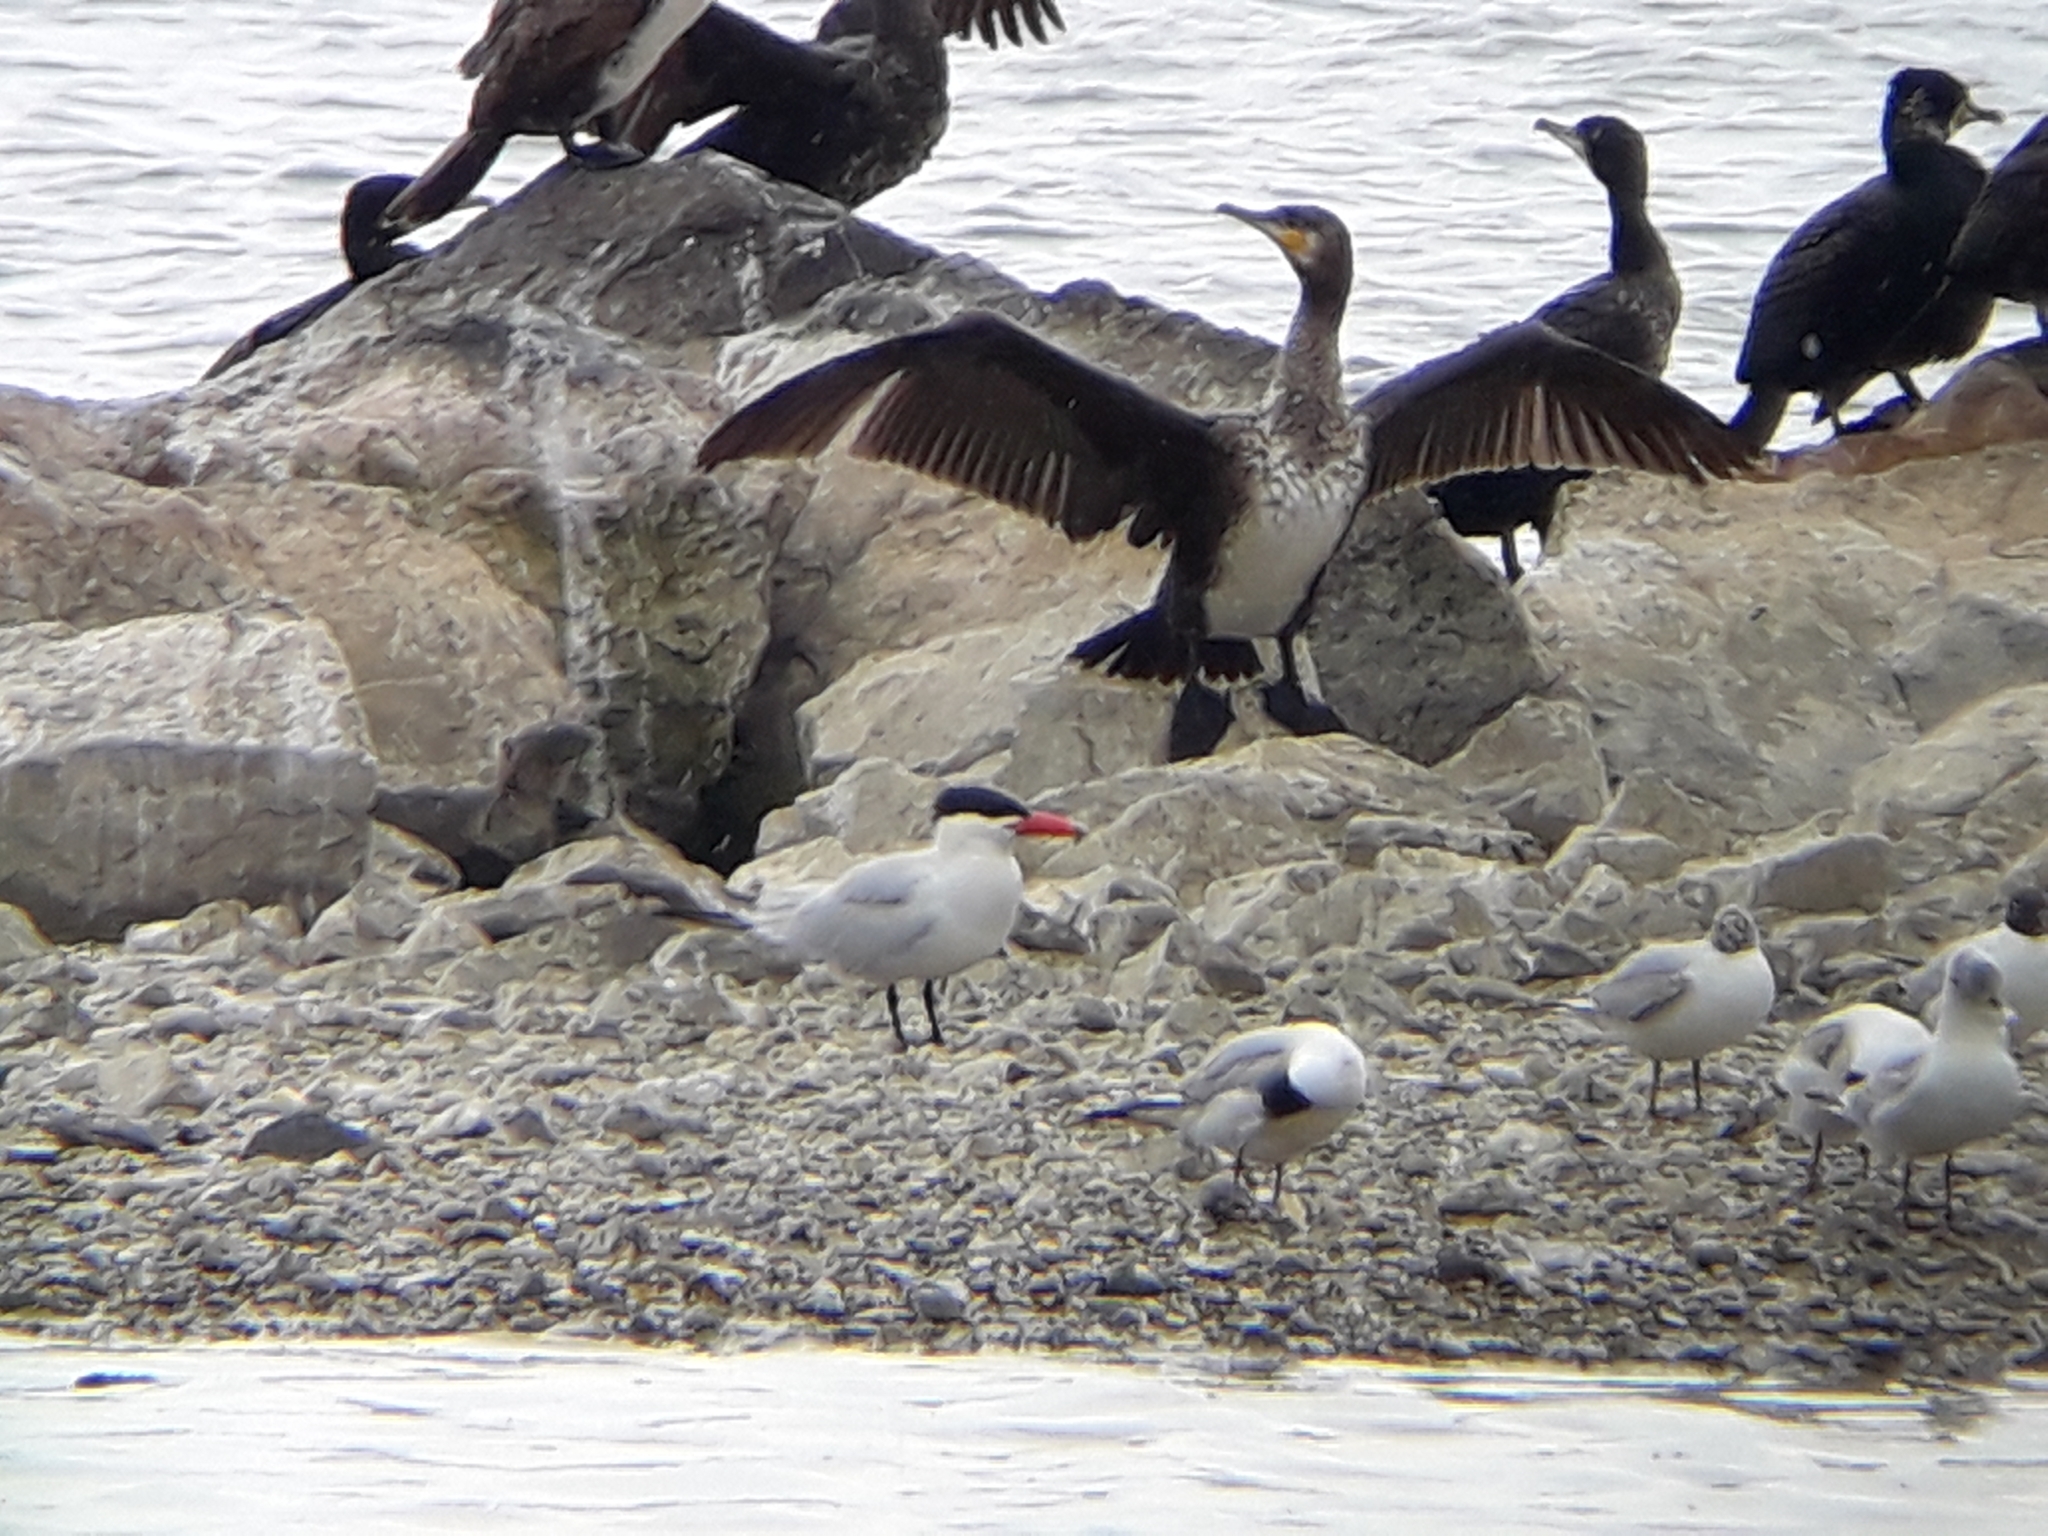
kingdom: Animalia
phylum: Chordata
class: Aves
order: Charadriiformes
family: Laridae
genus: Hydroprogne
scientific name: Hydroprogne caspia
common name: Caspian tern
